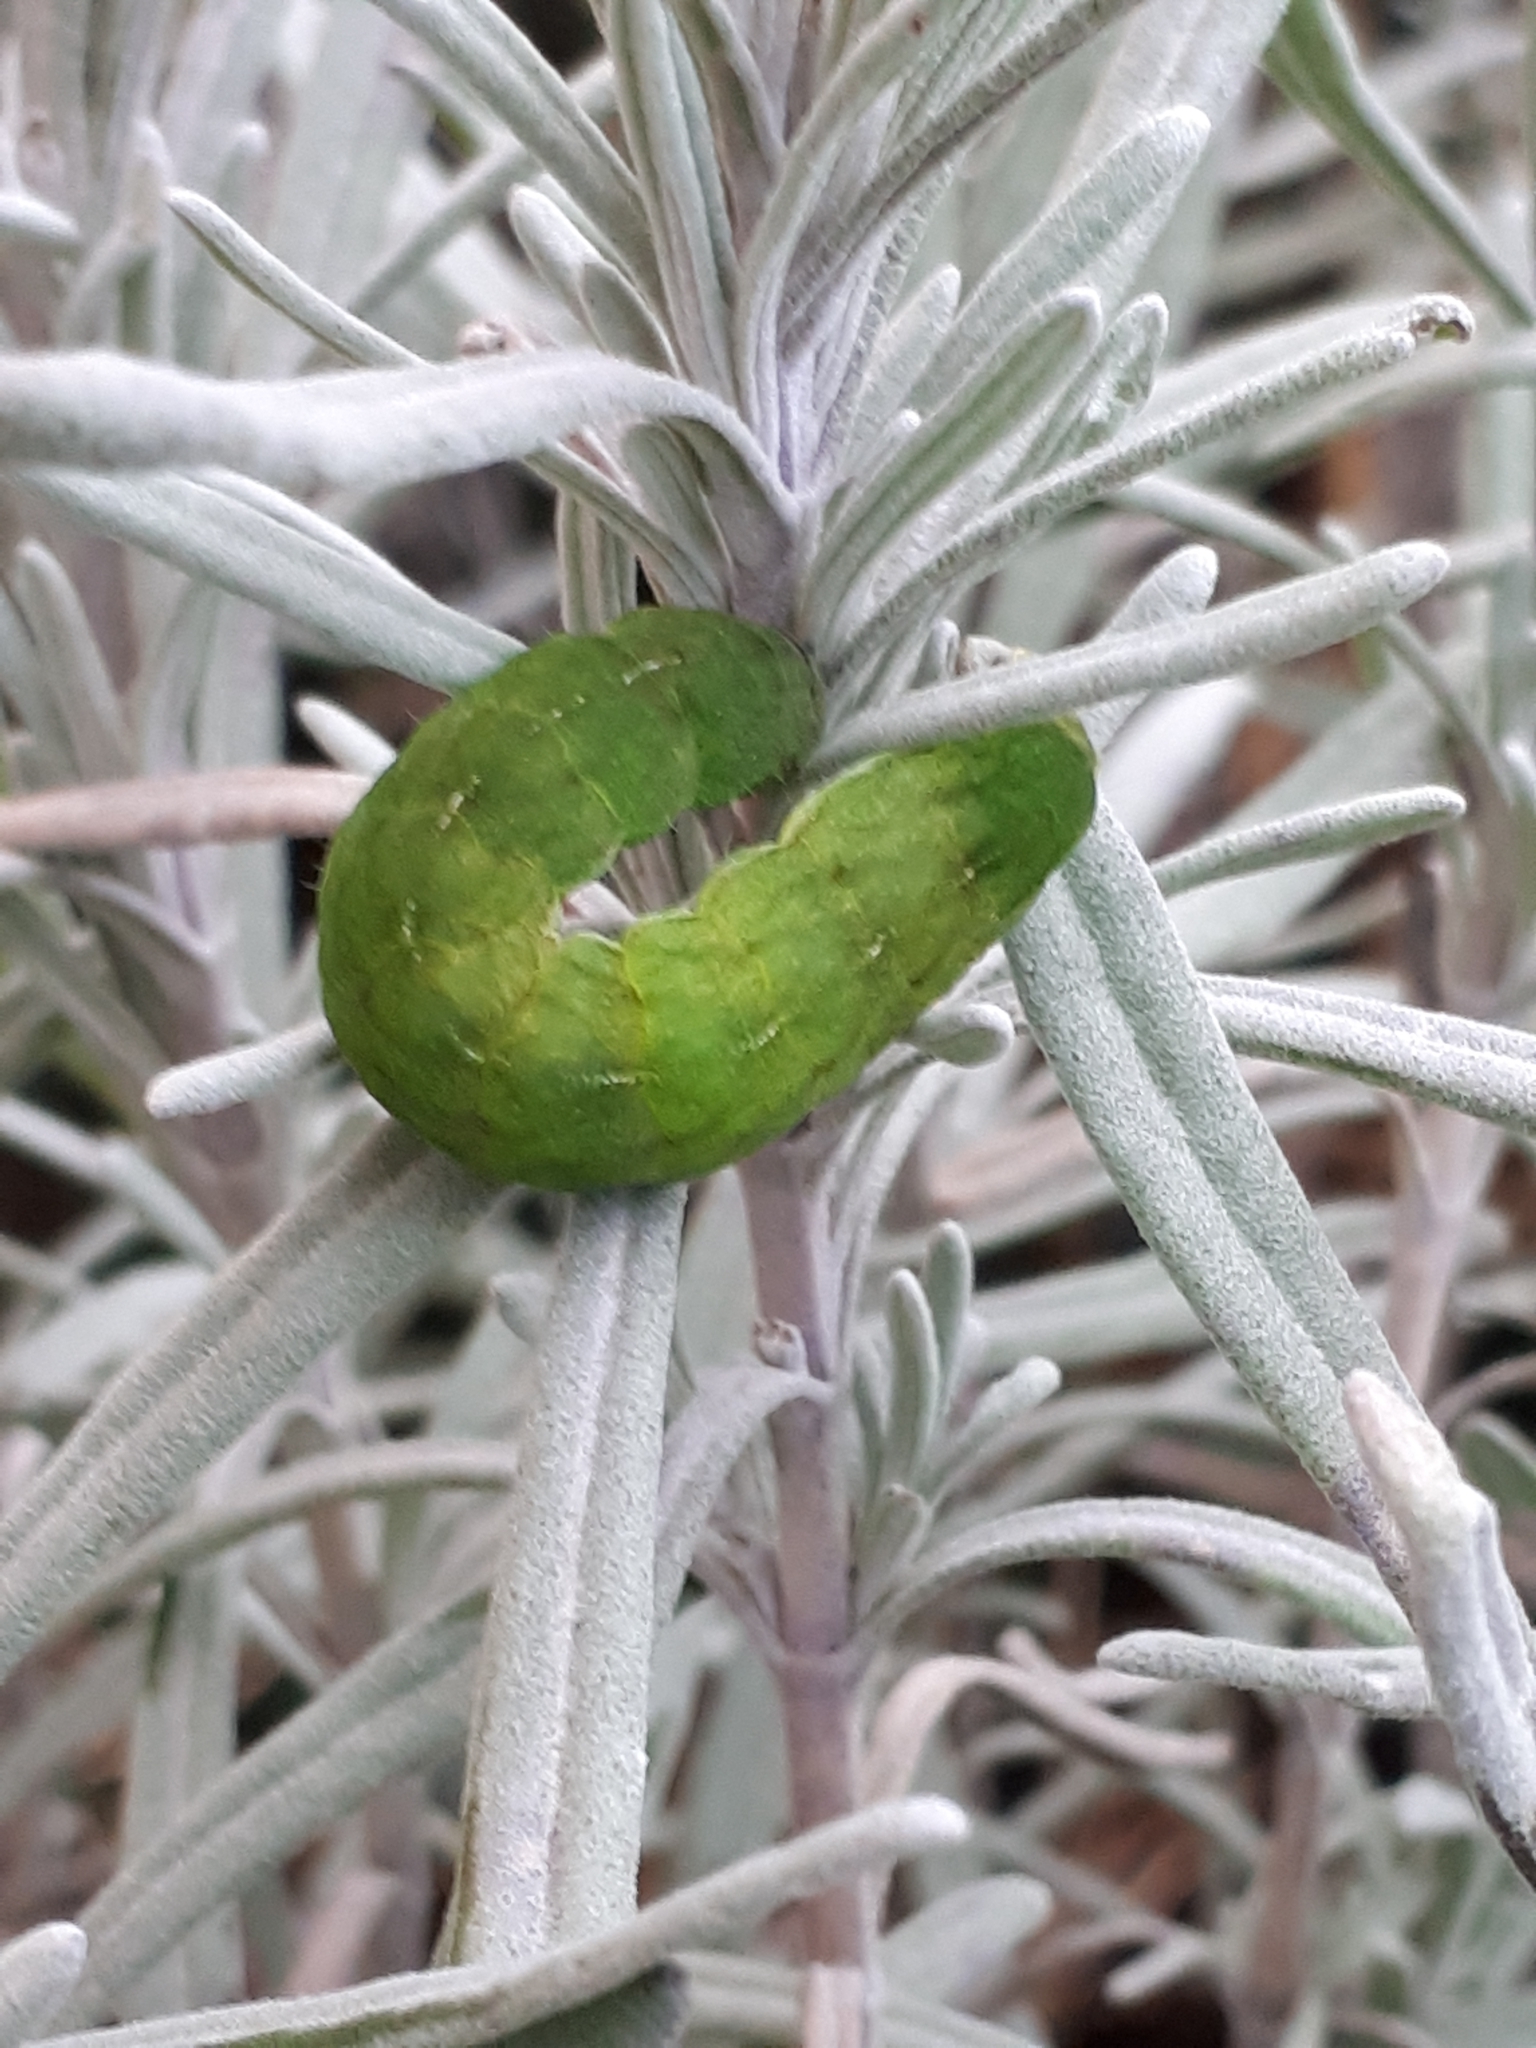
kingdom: Animalia
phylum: Arthropoda
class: Insecta
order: Lepidoptera
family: Noctuidae
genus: Phlogophora
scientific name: Phlogophora meticulosa
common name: Angle shades
